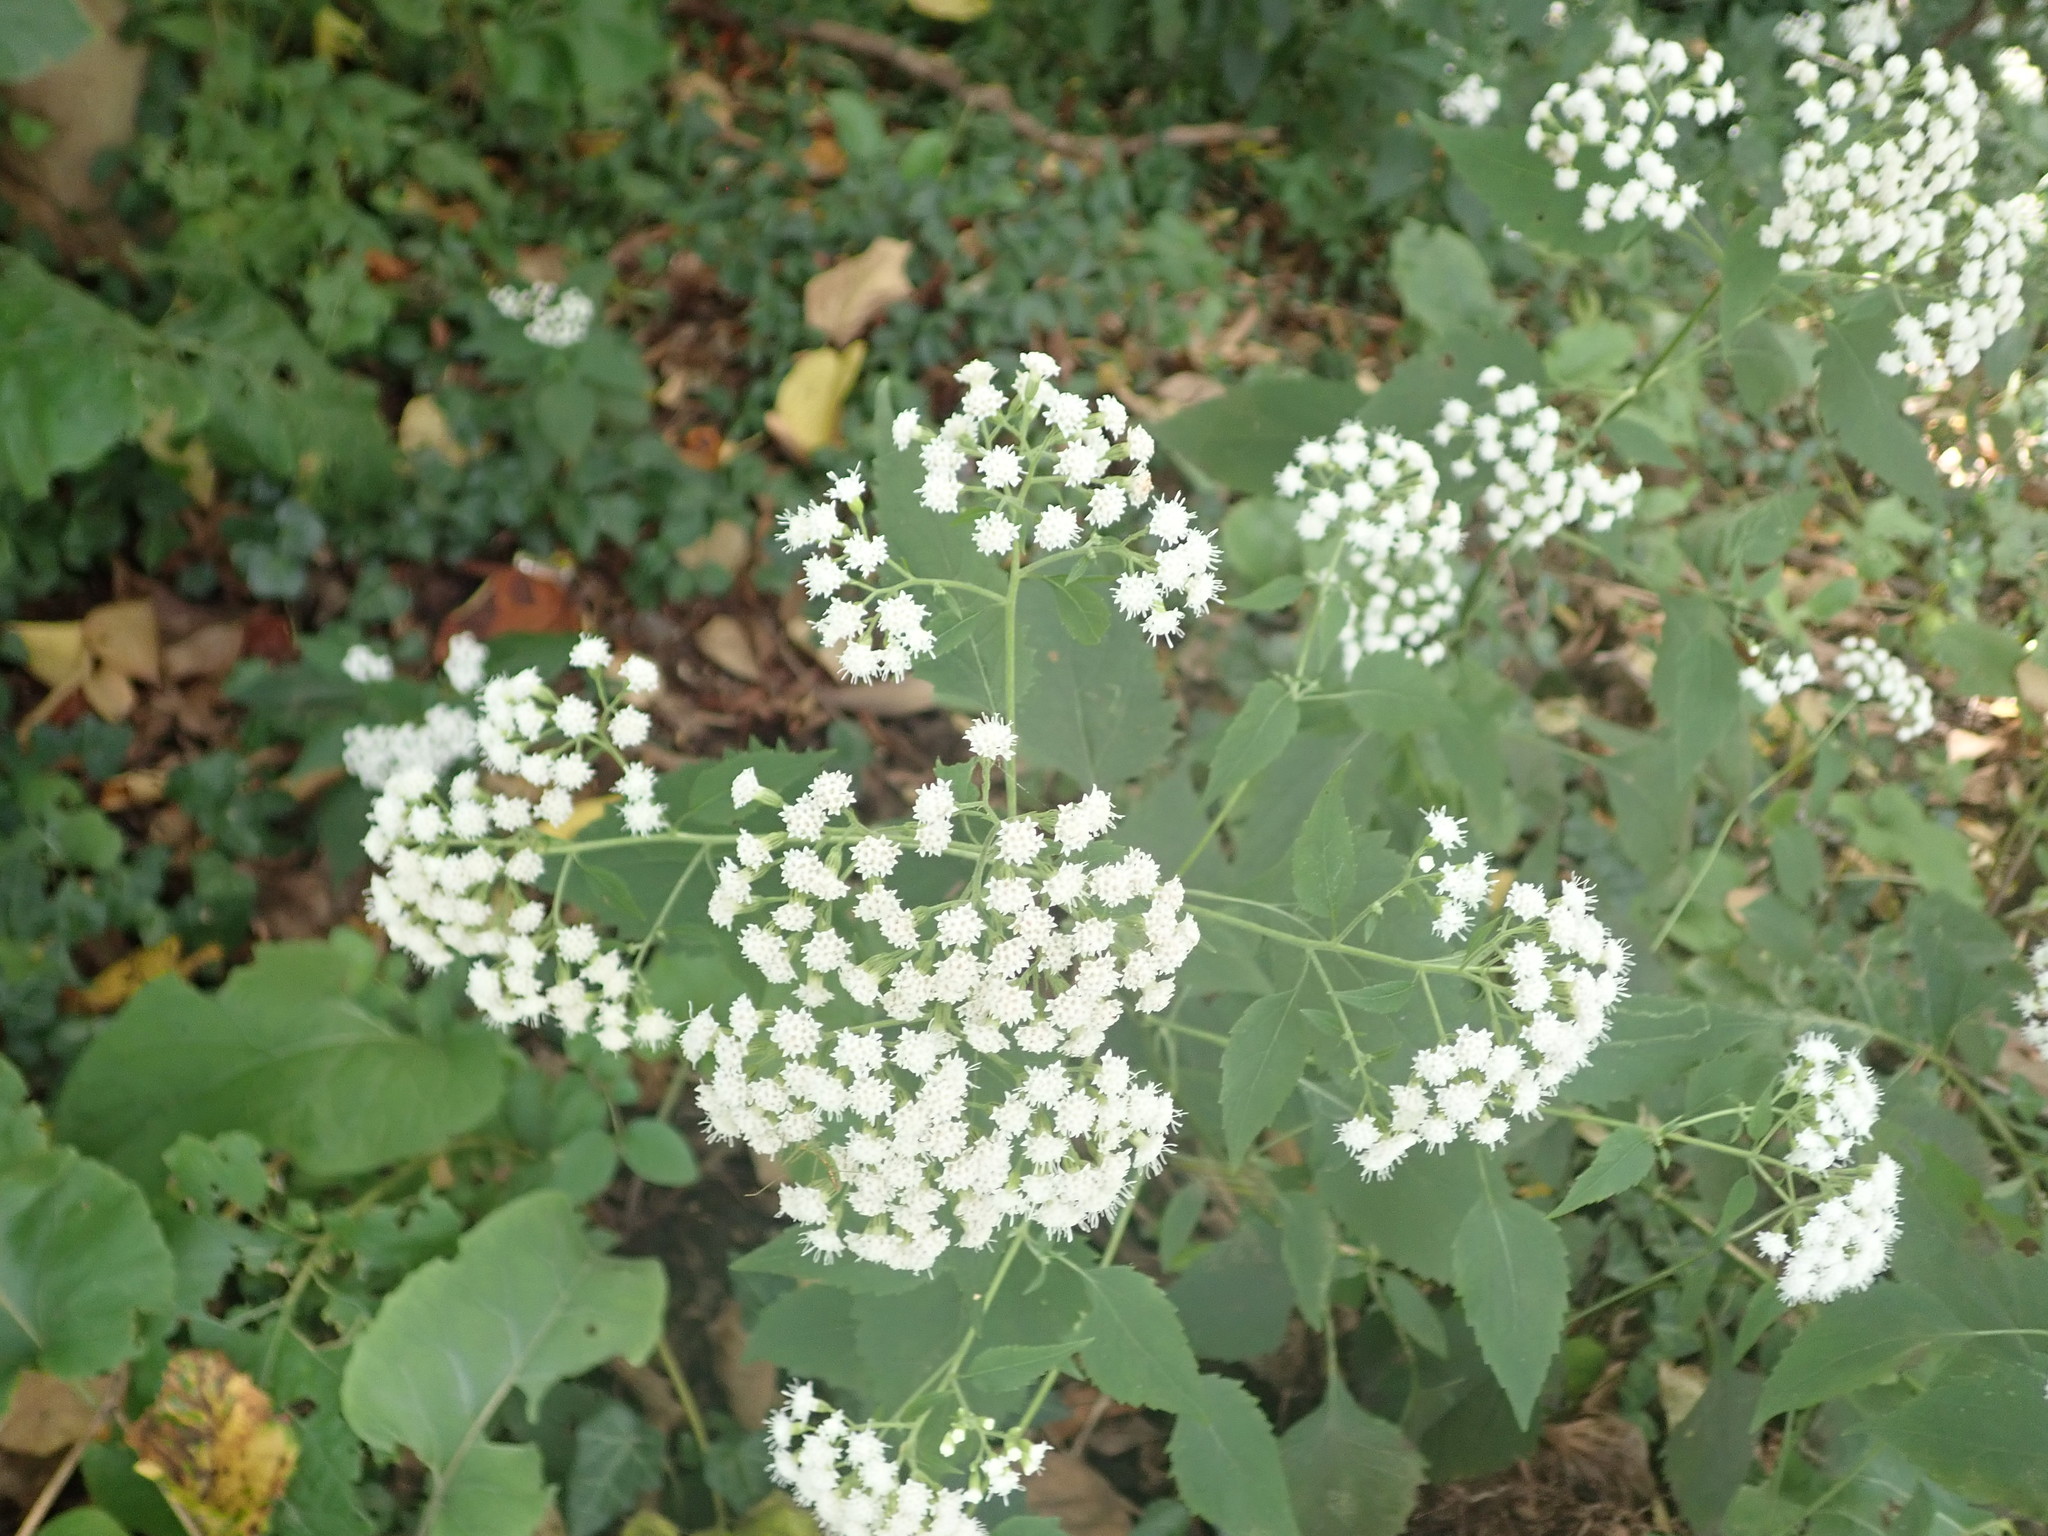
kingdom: Plantae
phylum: Tracheophyta
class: Magnoliopsida
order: Asterales
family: Asteraceae
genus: Ageratina
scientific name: Ageratina altissima
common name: White snakeroot
